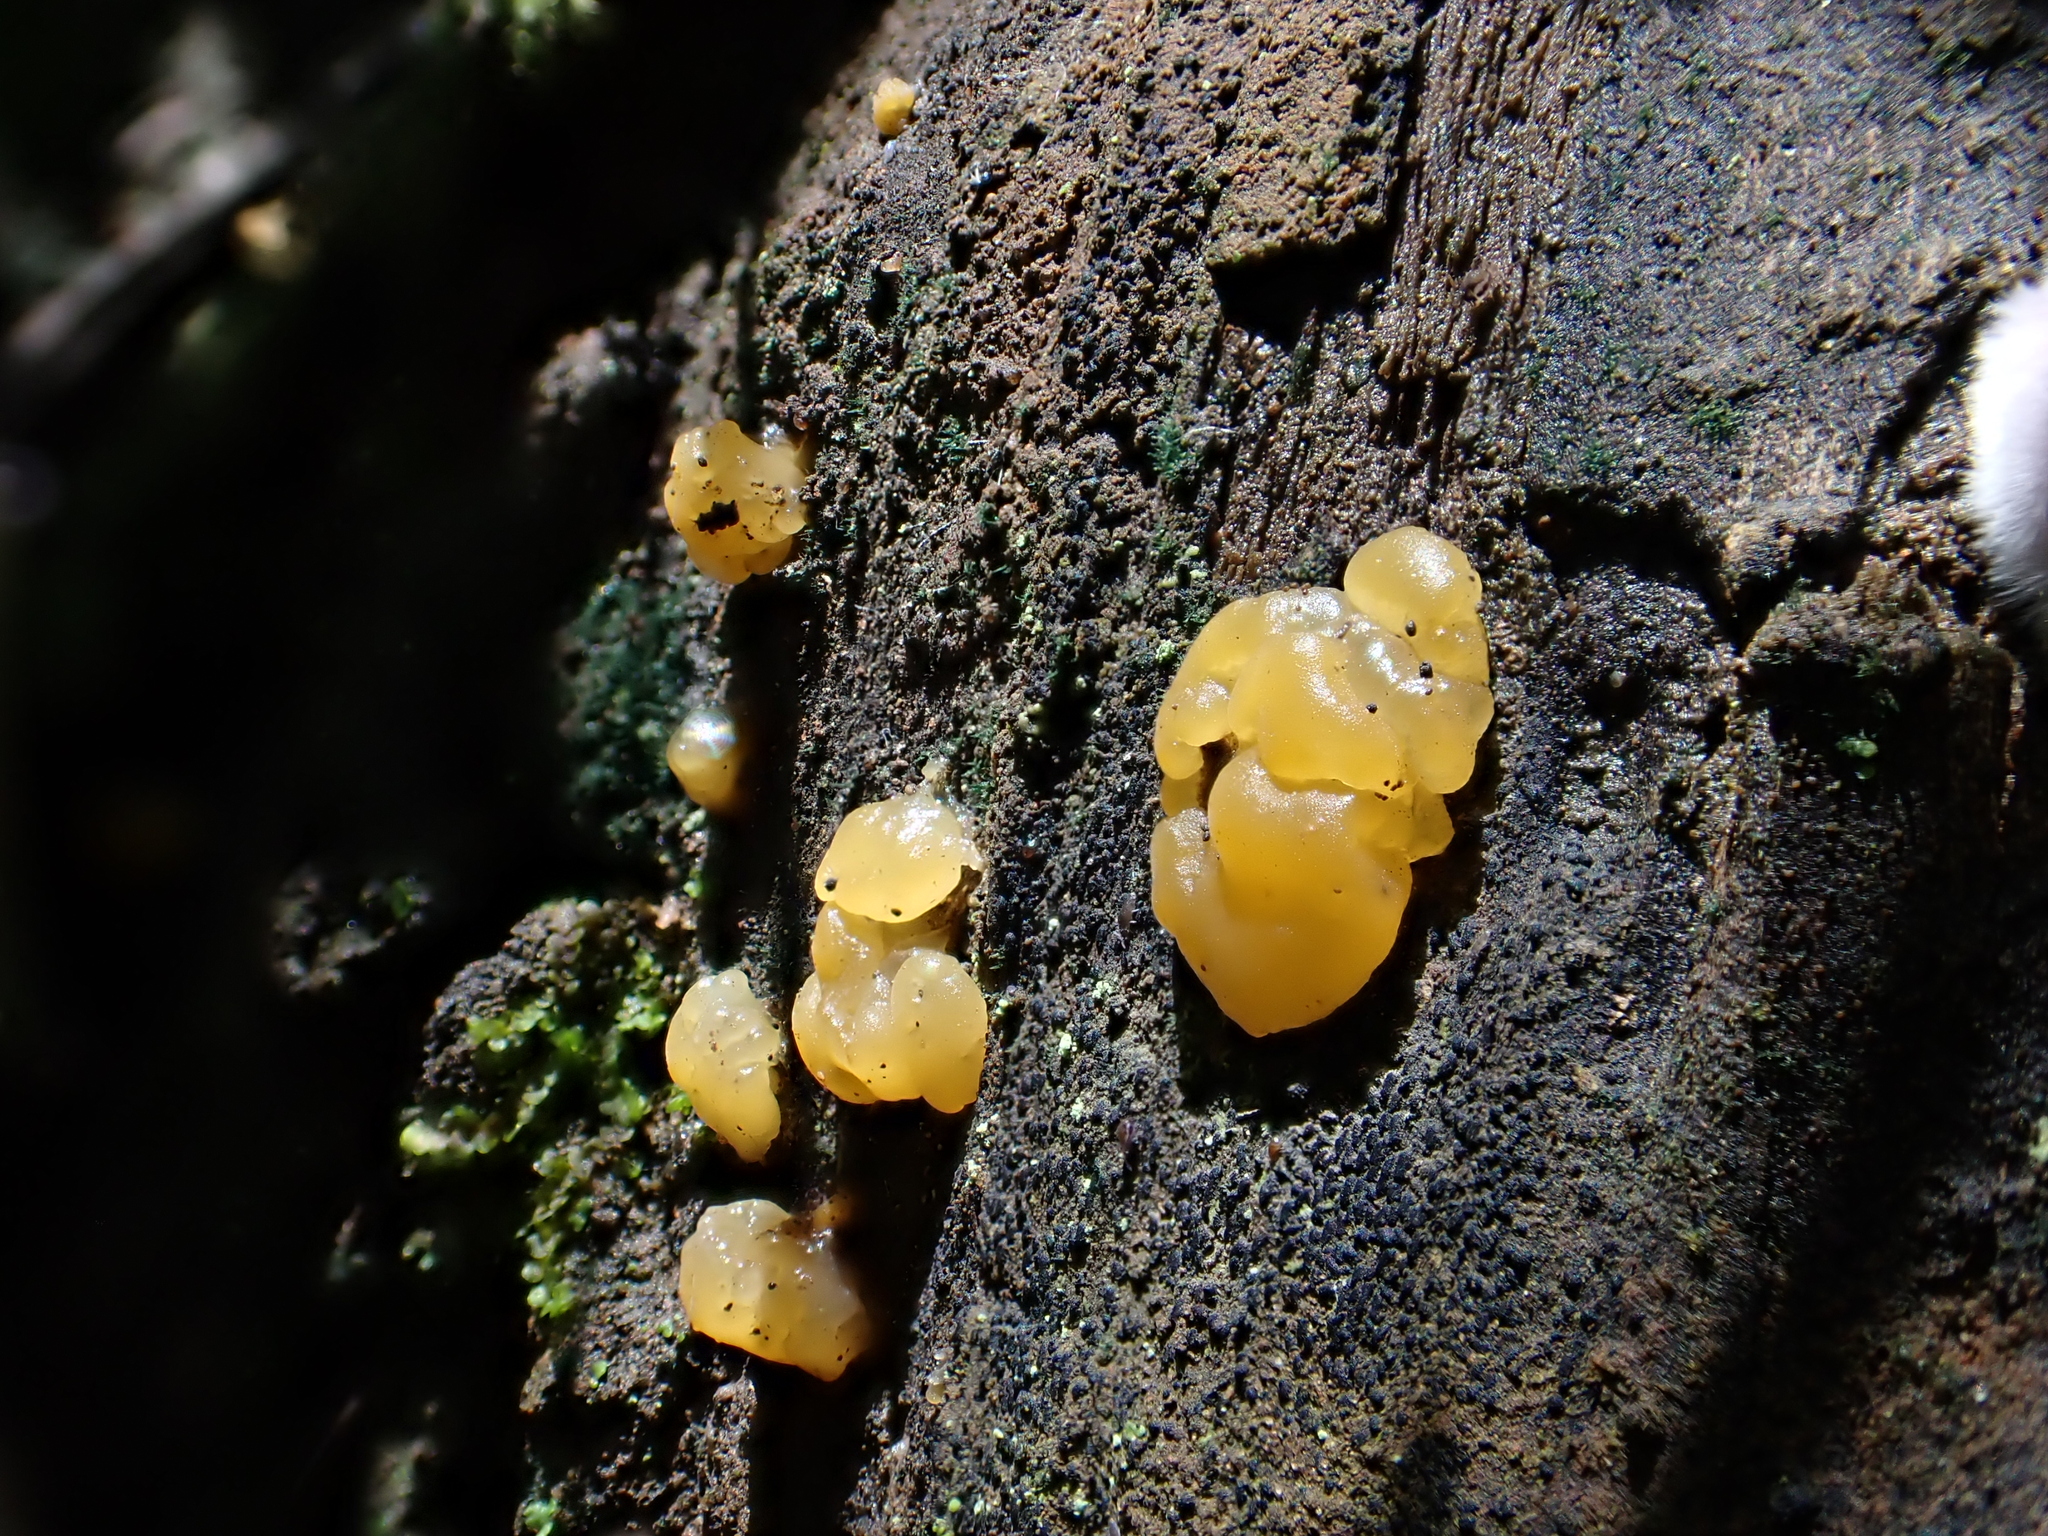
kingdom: Fungi
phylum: Basidiomycota
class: Tremellomycetes
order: Tremellales
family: Tremellaceae
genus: Tremella
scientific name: Tremella mesenterica
